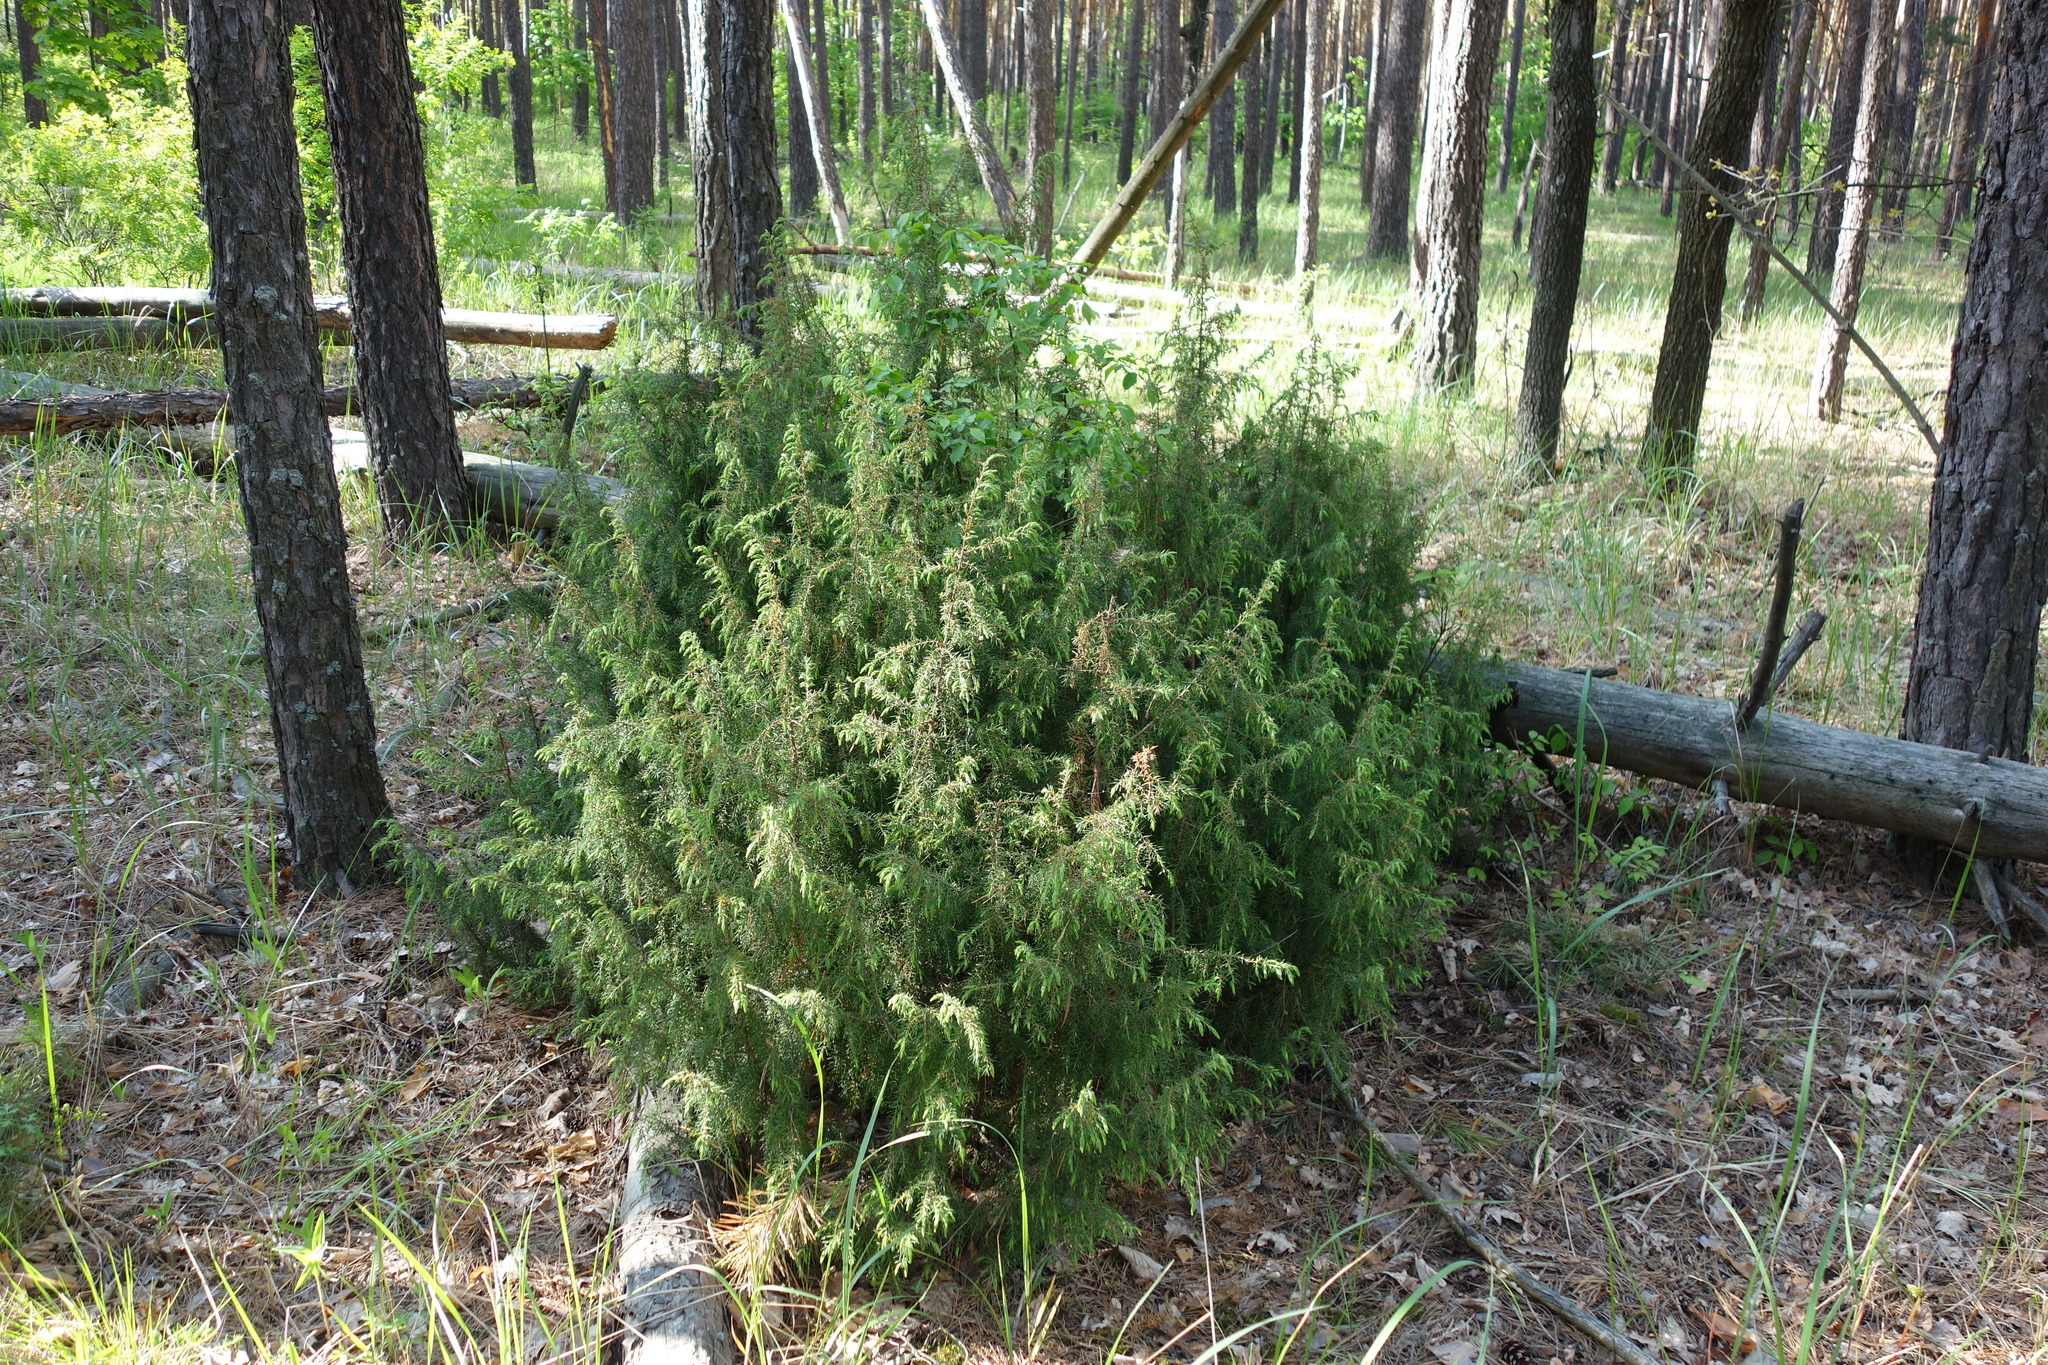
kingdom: Plantae
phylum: Tracheophyta
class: Pinopsida
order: Pinales
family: Cupressaceae
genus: Juniperus
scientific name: Juniperus communis
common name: Common juniper
